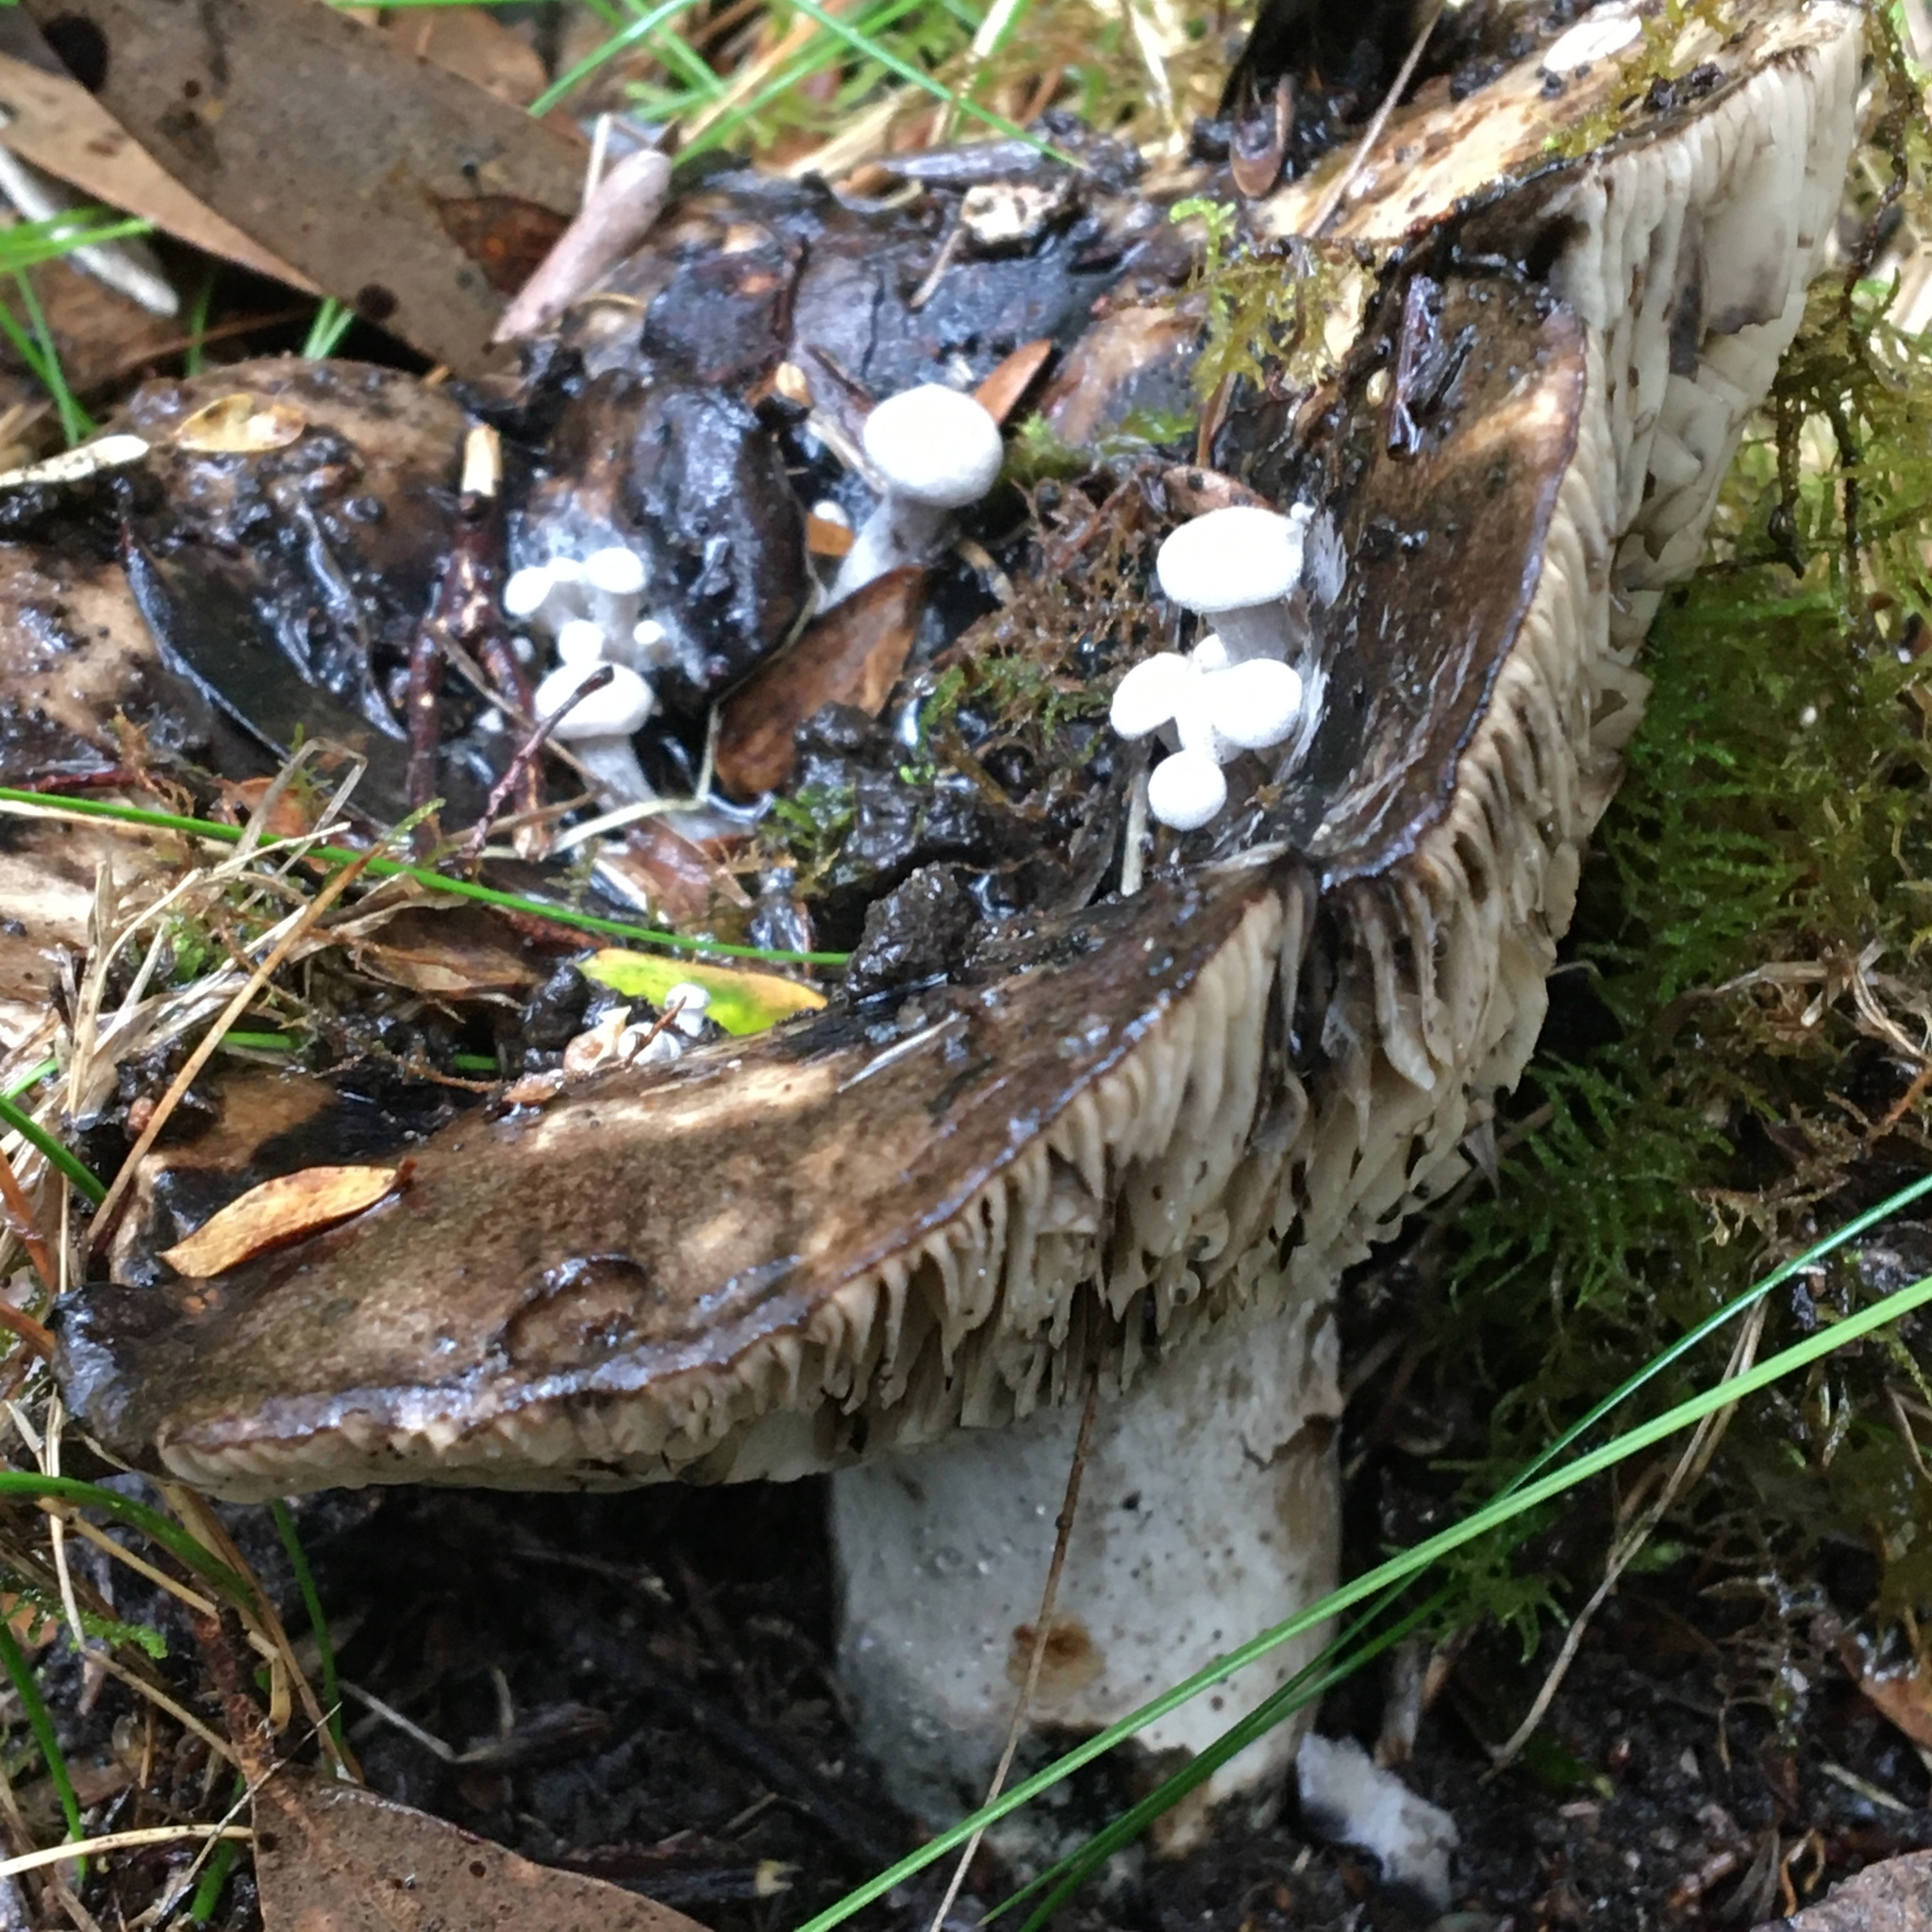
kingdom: Fungi
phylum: Basidiomycota
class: Agaricomycetes
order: Agaricales
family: Lyophyllaceae
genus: Asterophora
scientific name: Asterophora mirabilis
